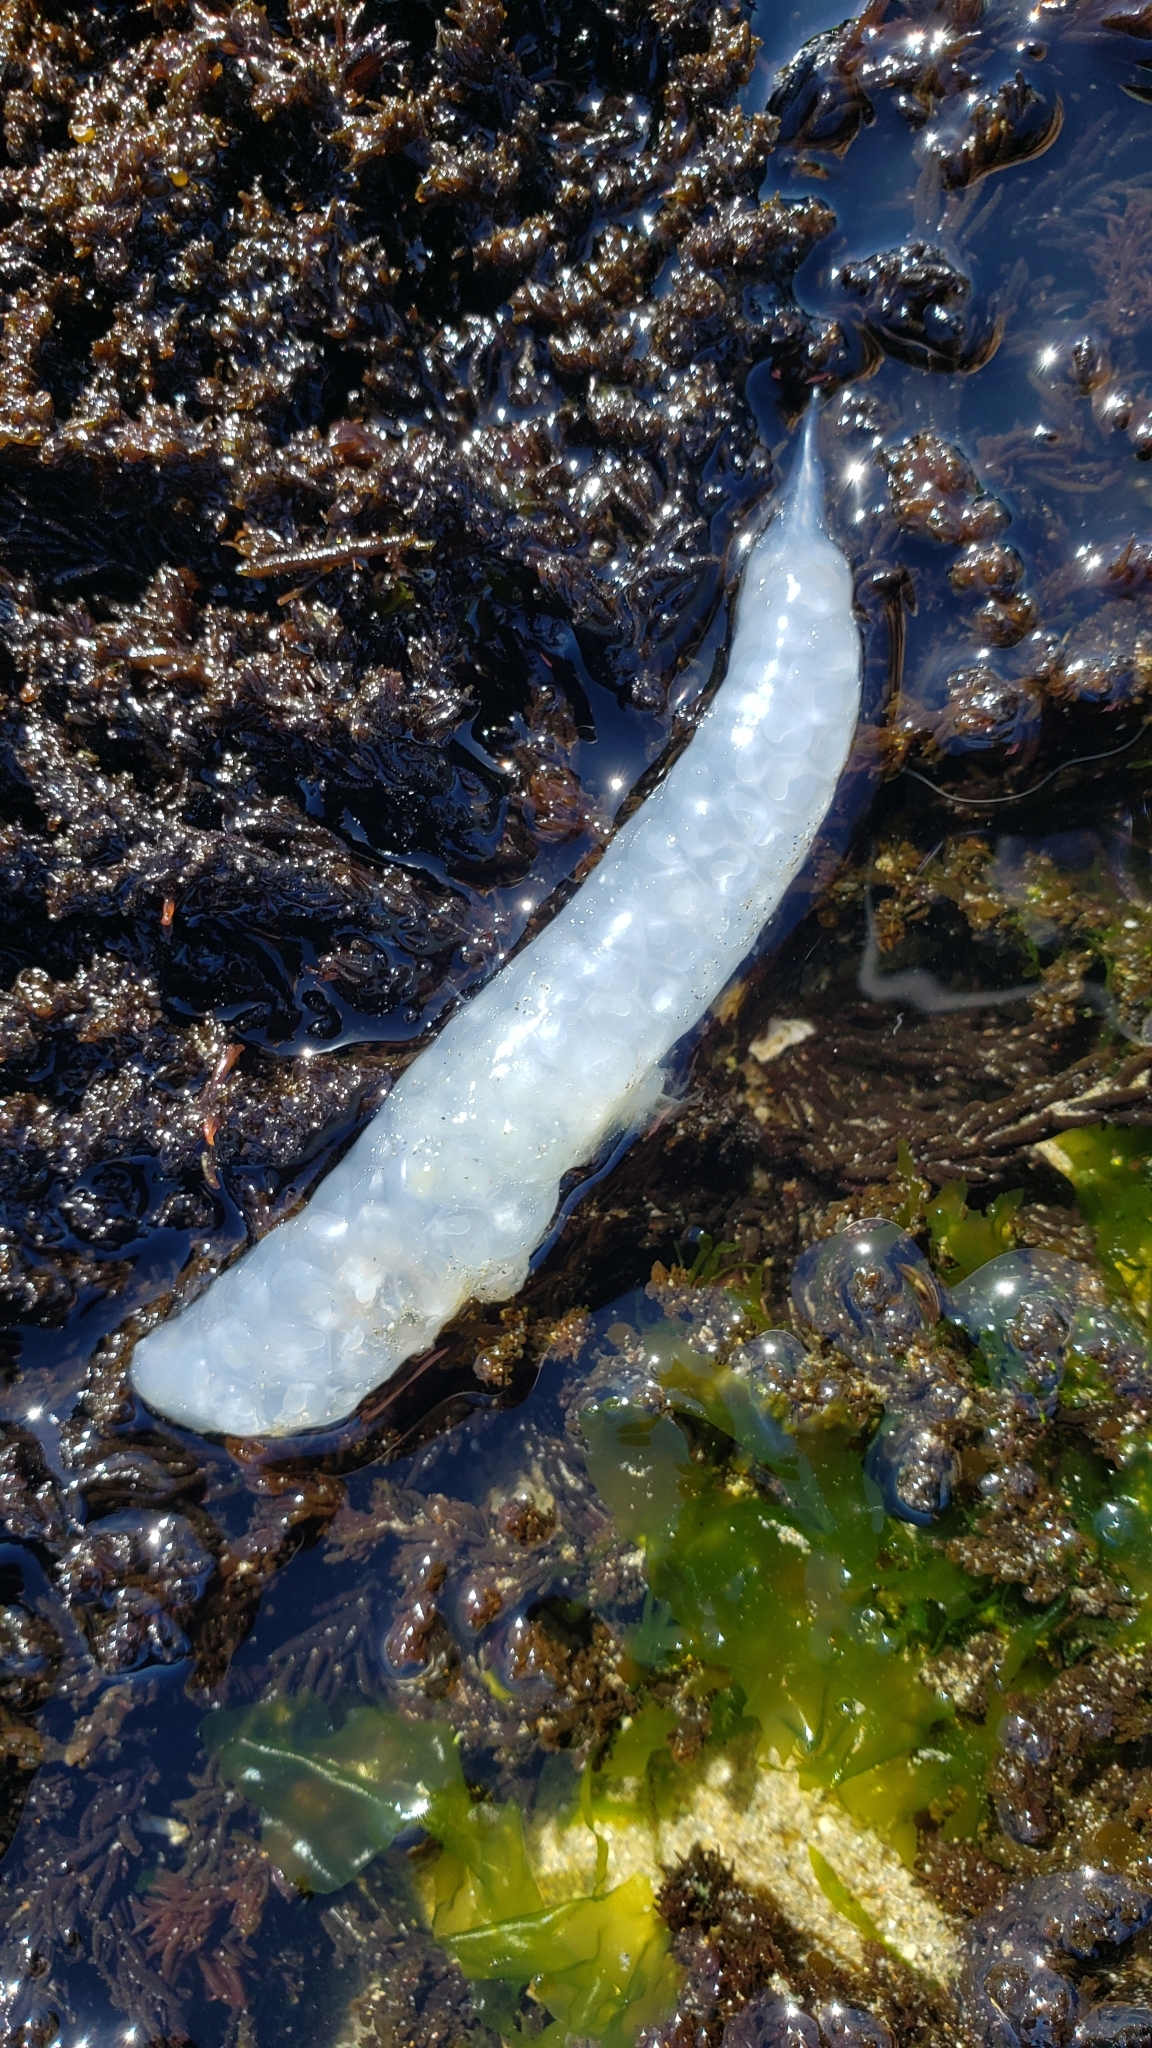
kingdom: Animalia
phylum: Mollusca
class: Cephalopoda
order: Myopsida
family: Loliginidae
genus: Doryteuthis
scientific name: Doryteuthis opalescens
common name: Opalescent inshore squid
